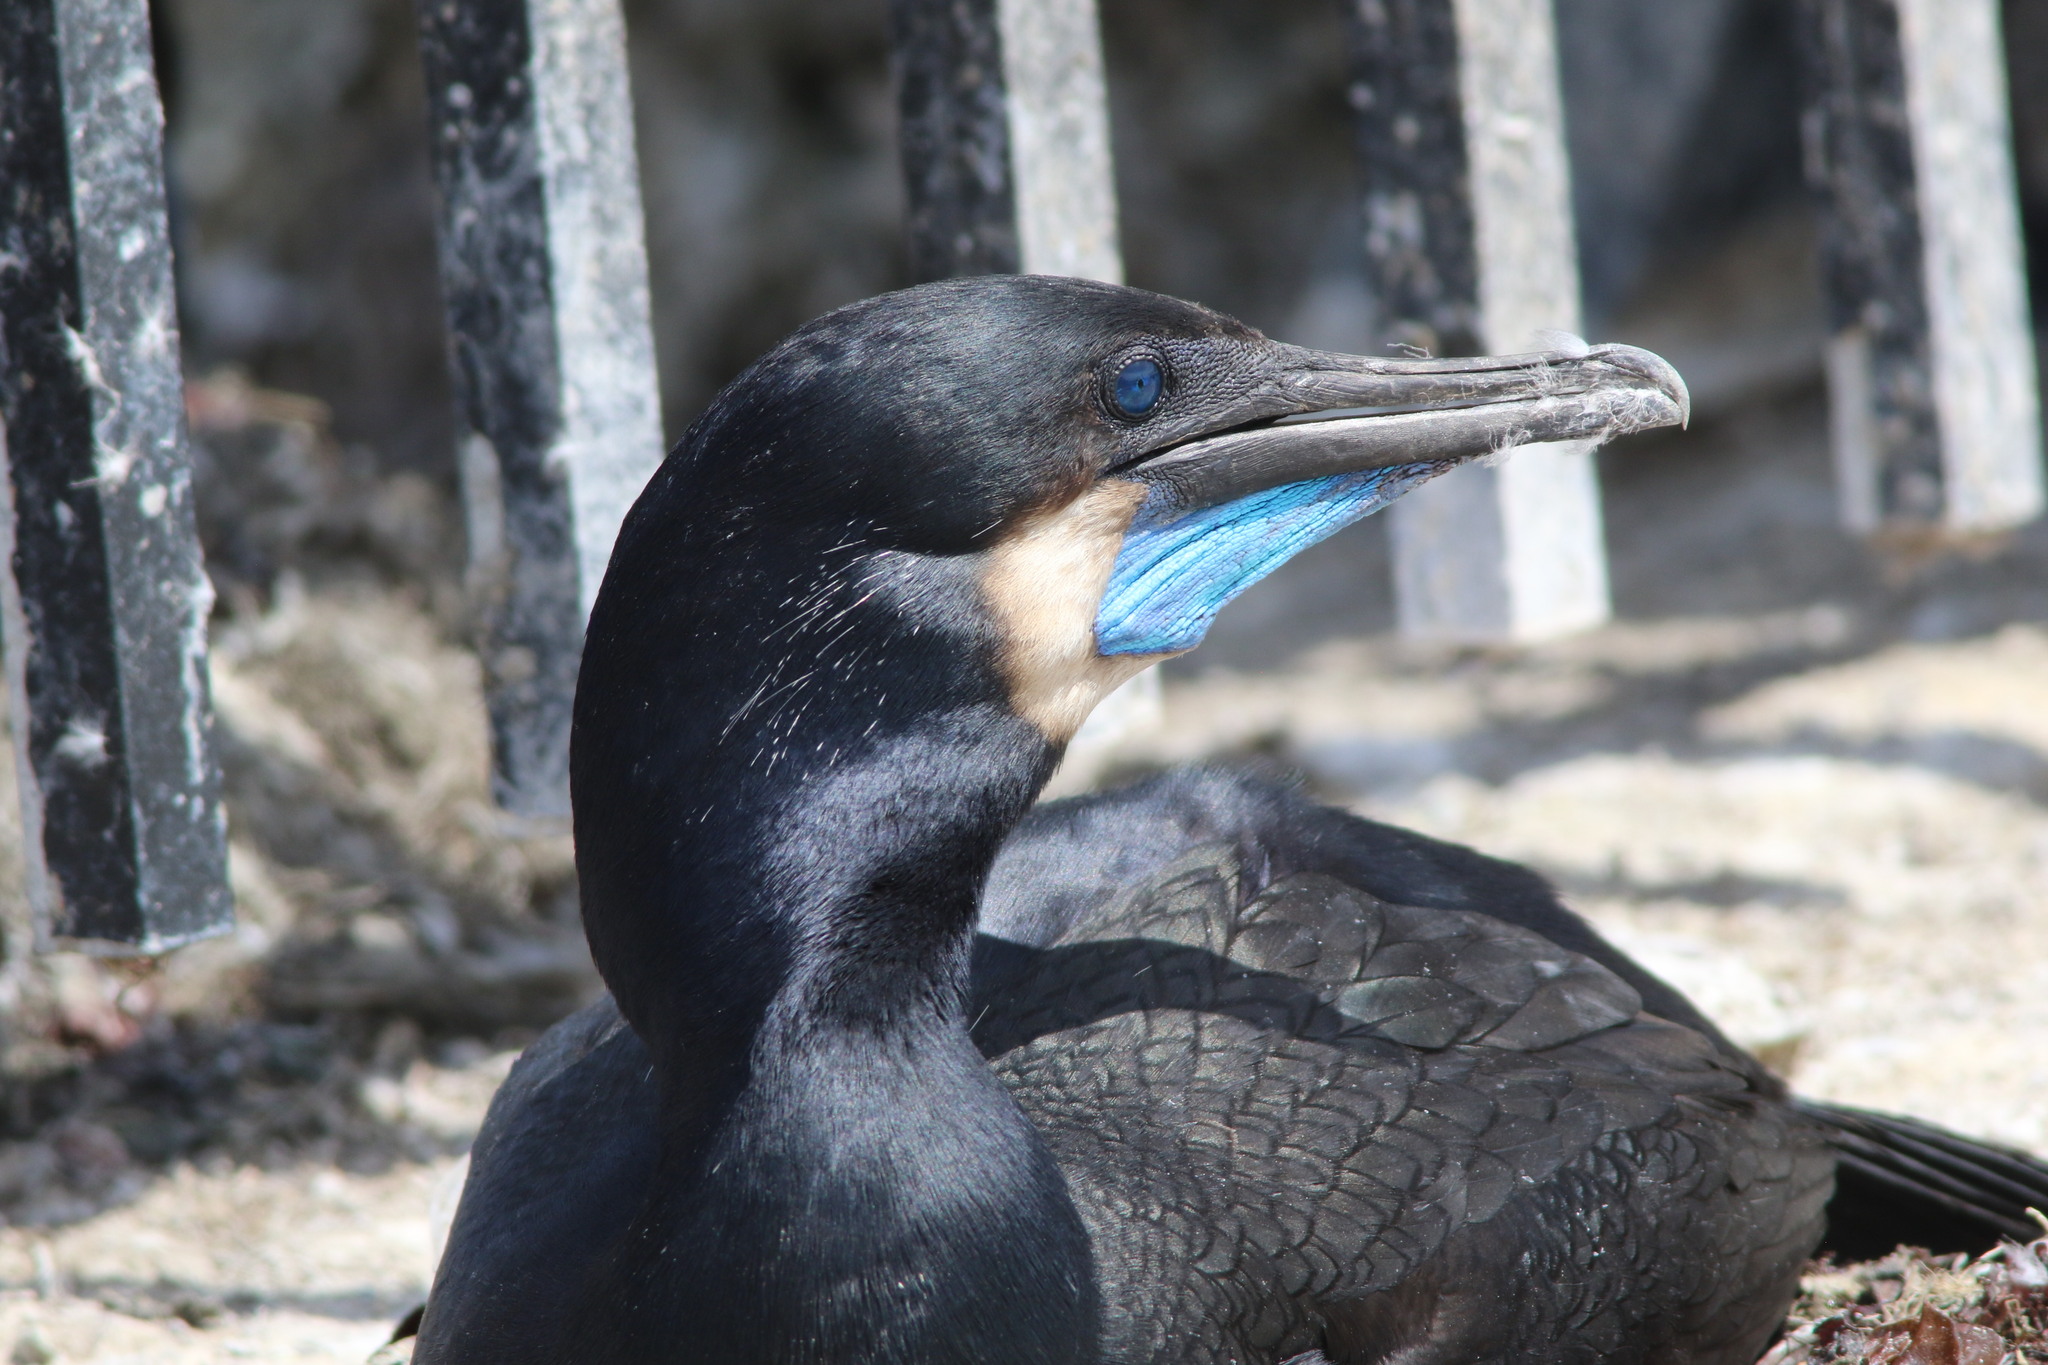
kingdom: Animalia
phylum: Chordata
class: Aves
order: Suliformes
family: Phalacrocoracidae
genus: Urile
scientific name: Urile penicillatus
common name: Brandt's cormorant
